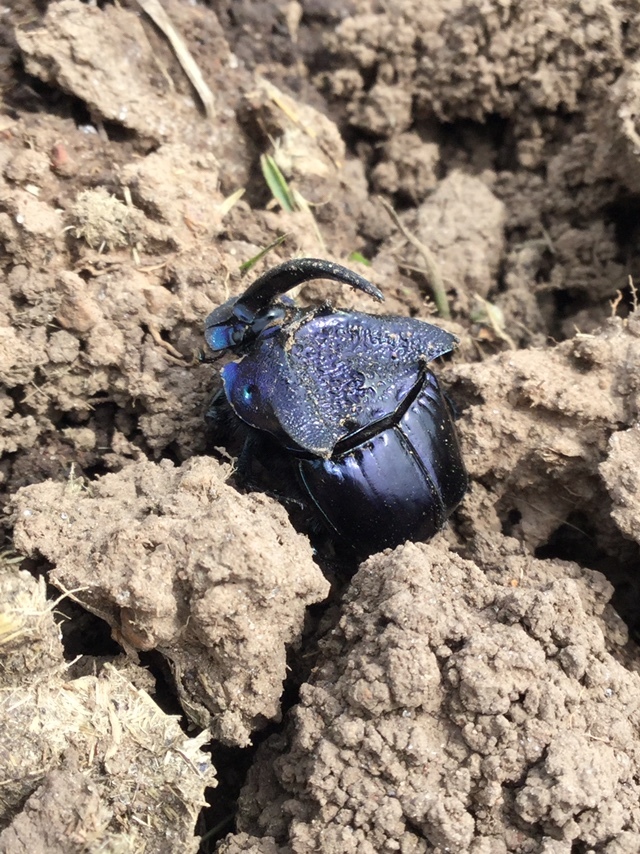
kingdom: Animalia
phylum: Arthropoda
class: Insecta
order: Coleoptera
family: Scarabaeidae
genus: Phanaeus
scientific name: Phanaeus quadridens
